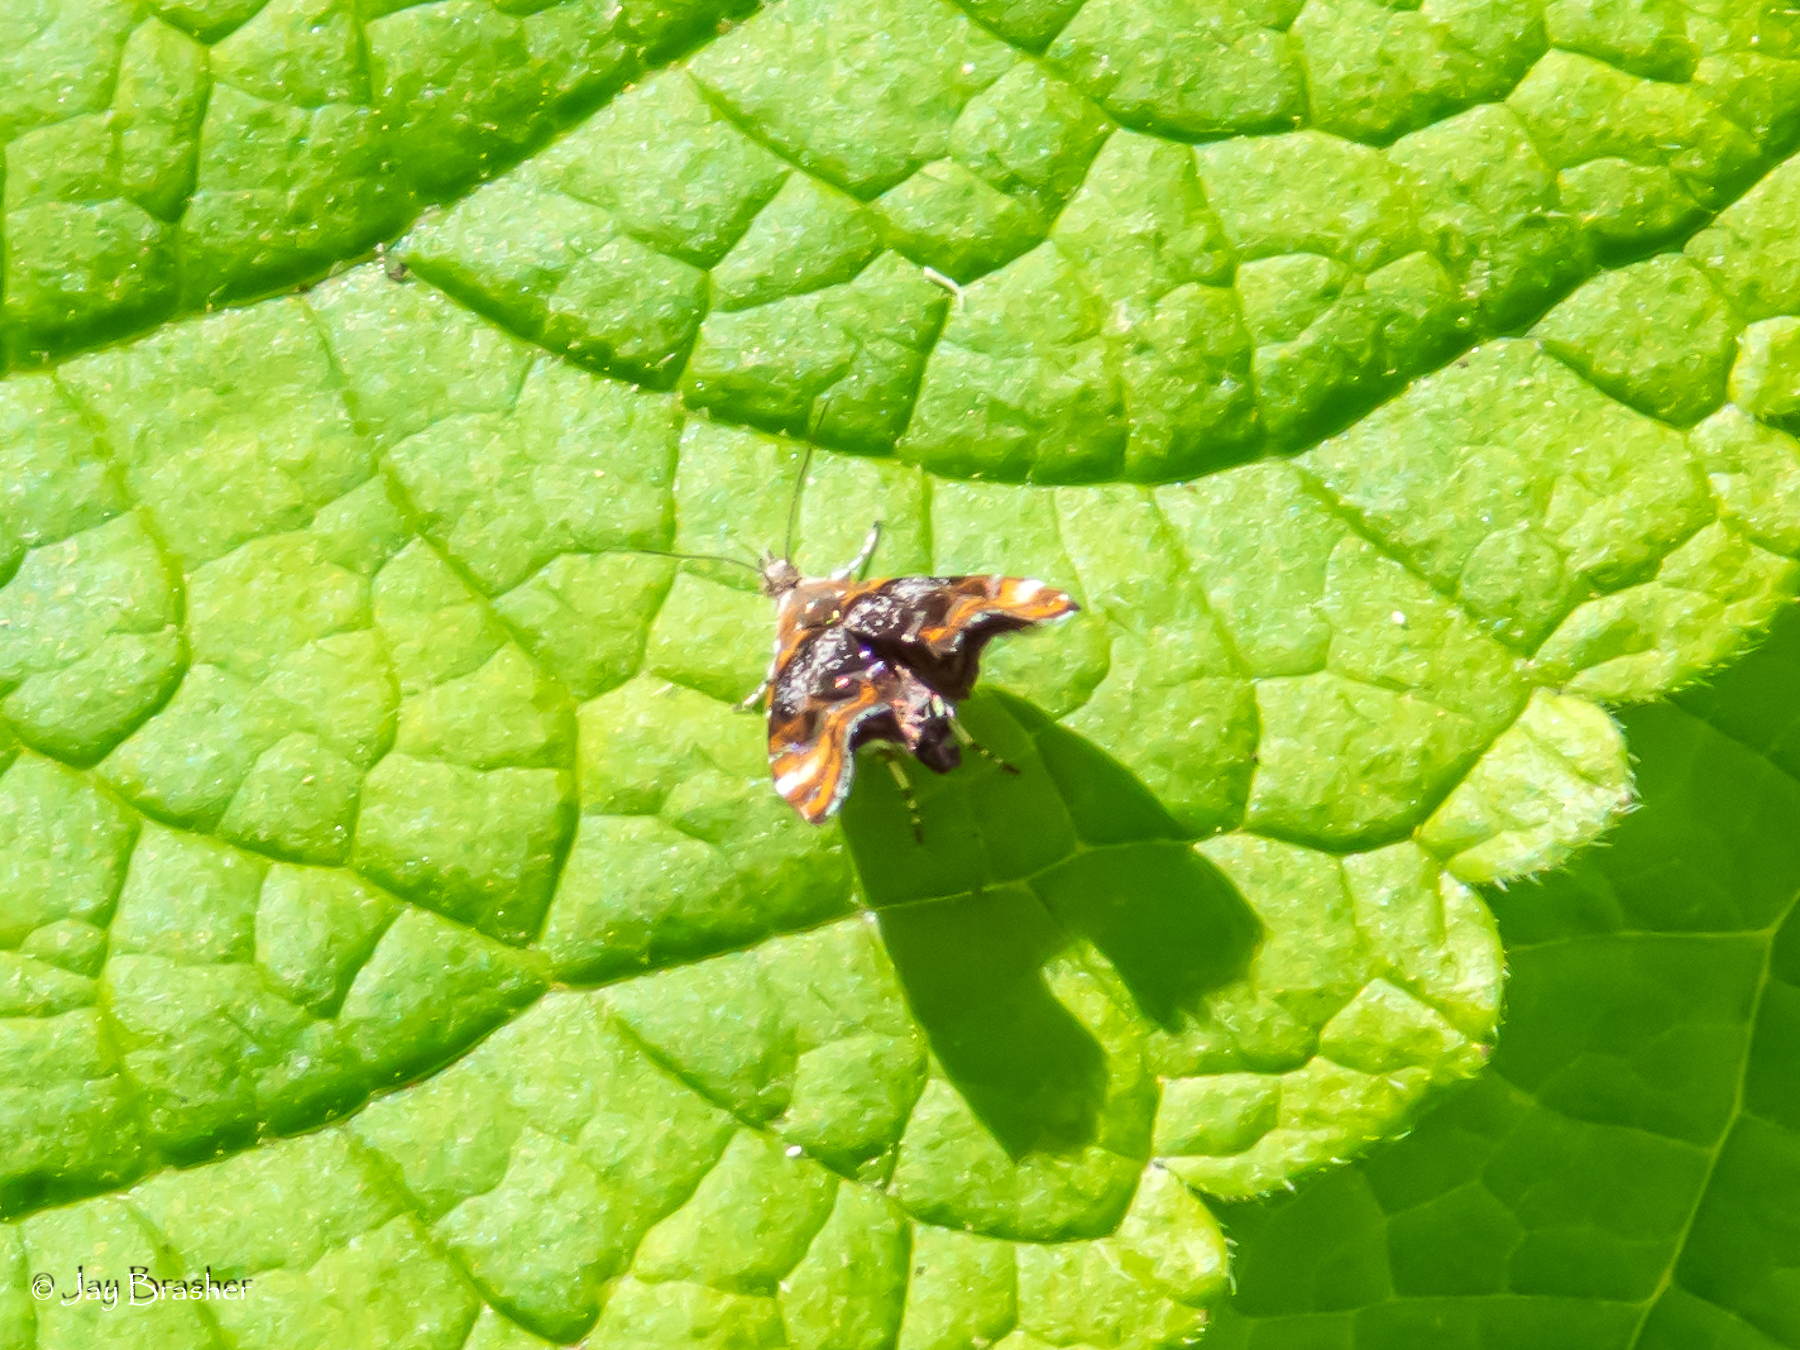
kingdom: Animalia
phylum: Arthropoda
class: Insecta
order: Lepidoptera
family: Choreutidae
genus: Prochoreutis
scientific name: Prochoreutis inflatella
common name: Skullcap skeletonizer moth
